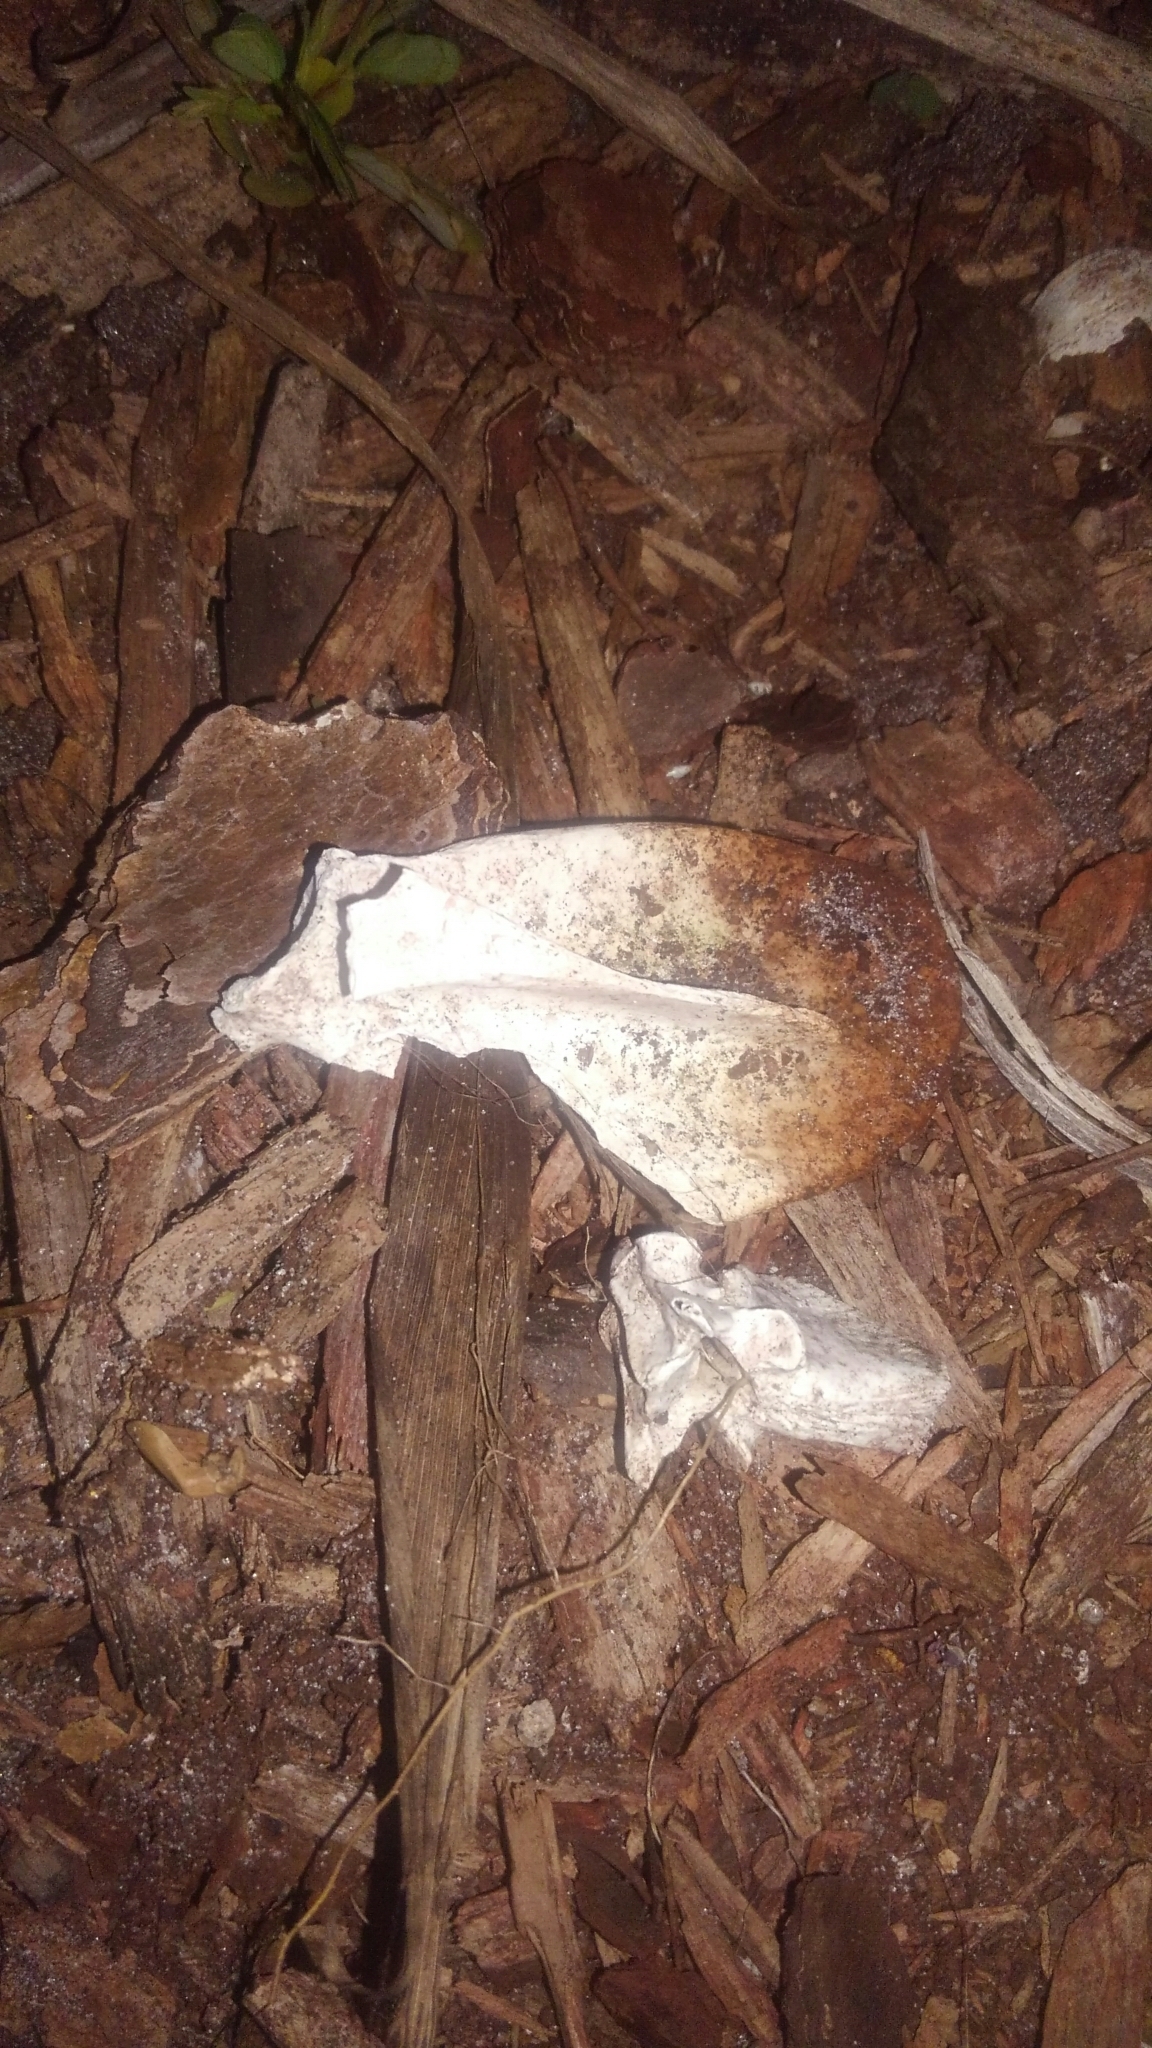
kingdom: Animalia
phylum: Chordata
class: Mammalia
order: Didelphimorphia
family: Didelphidae
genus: Didelphis
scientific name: Didelphis virginiana
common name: Virginia opossum
